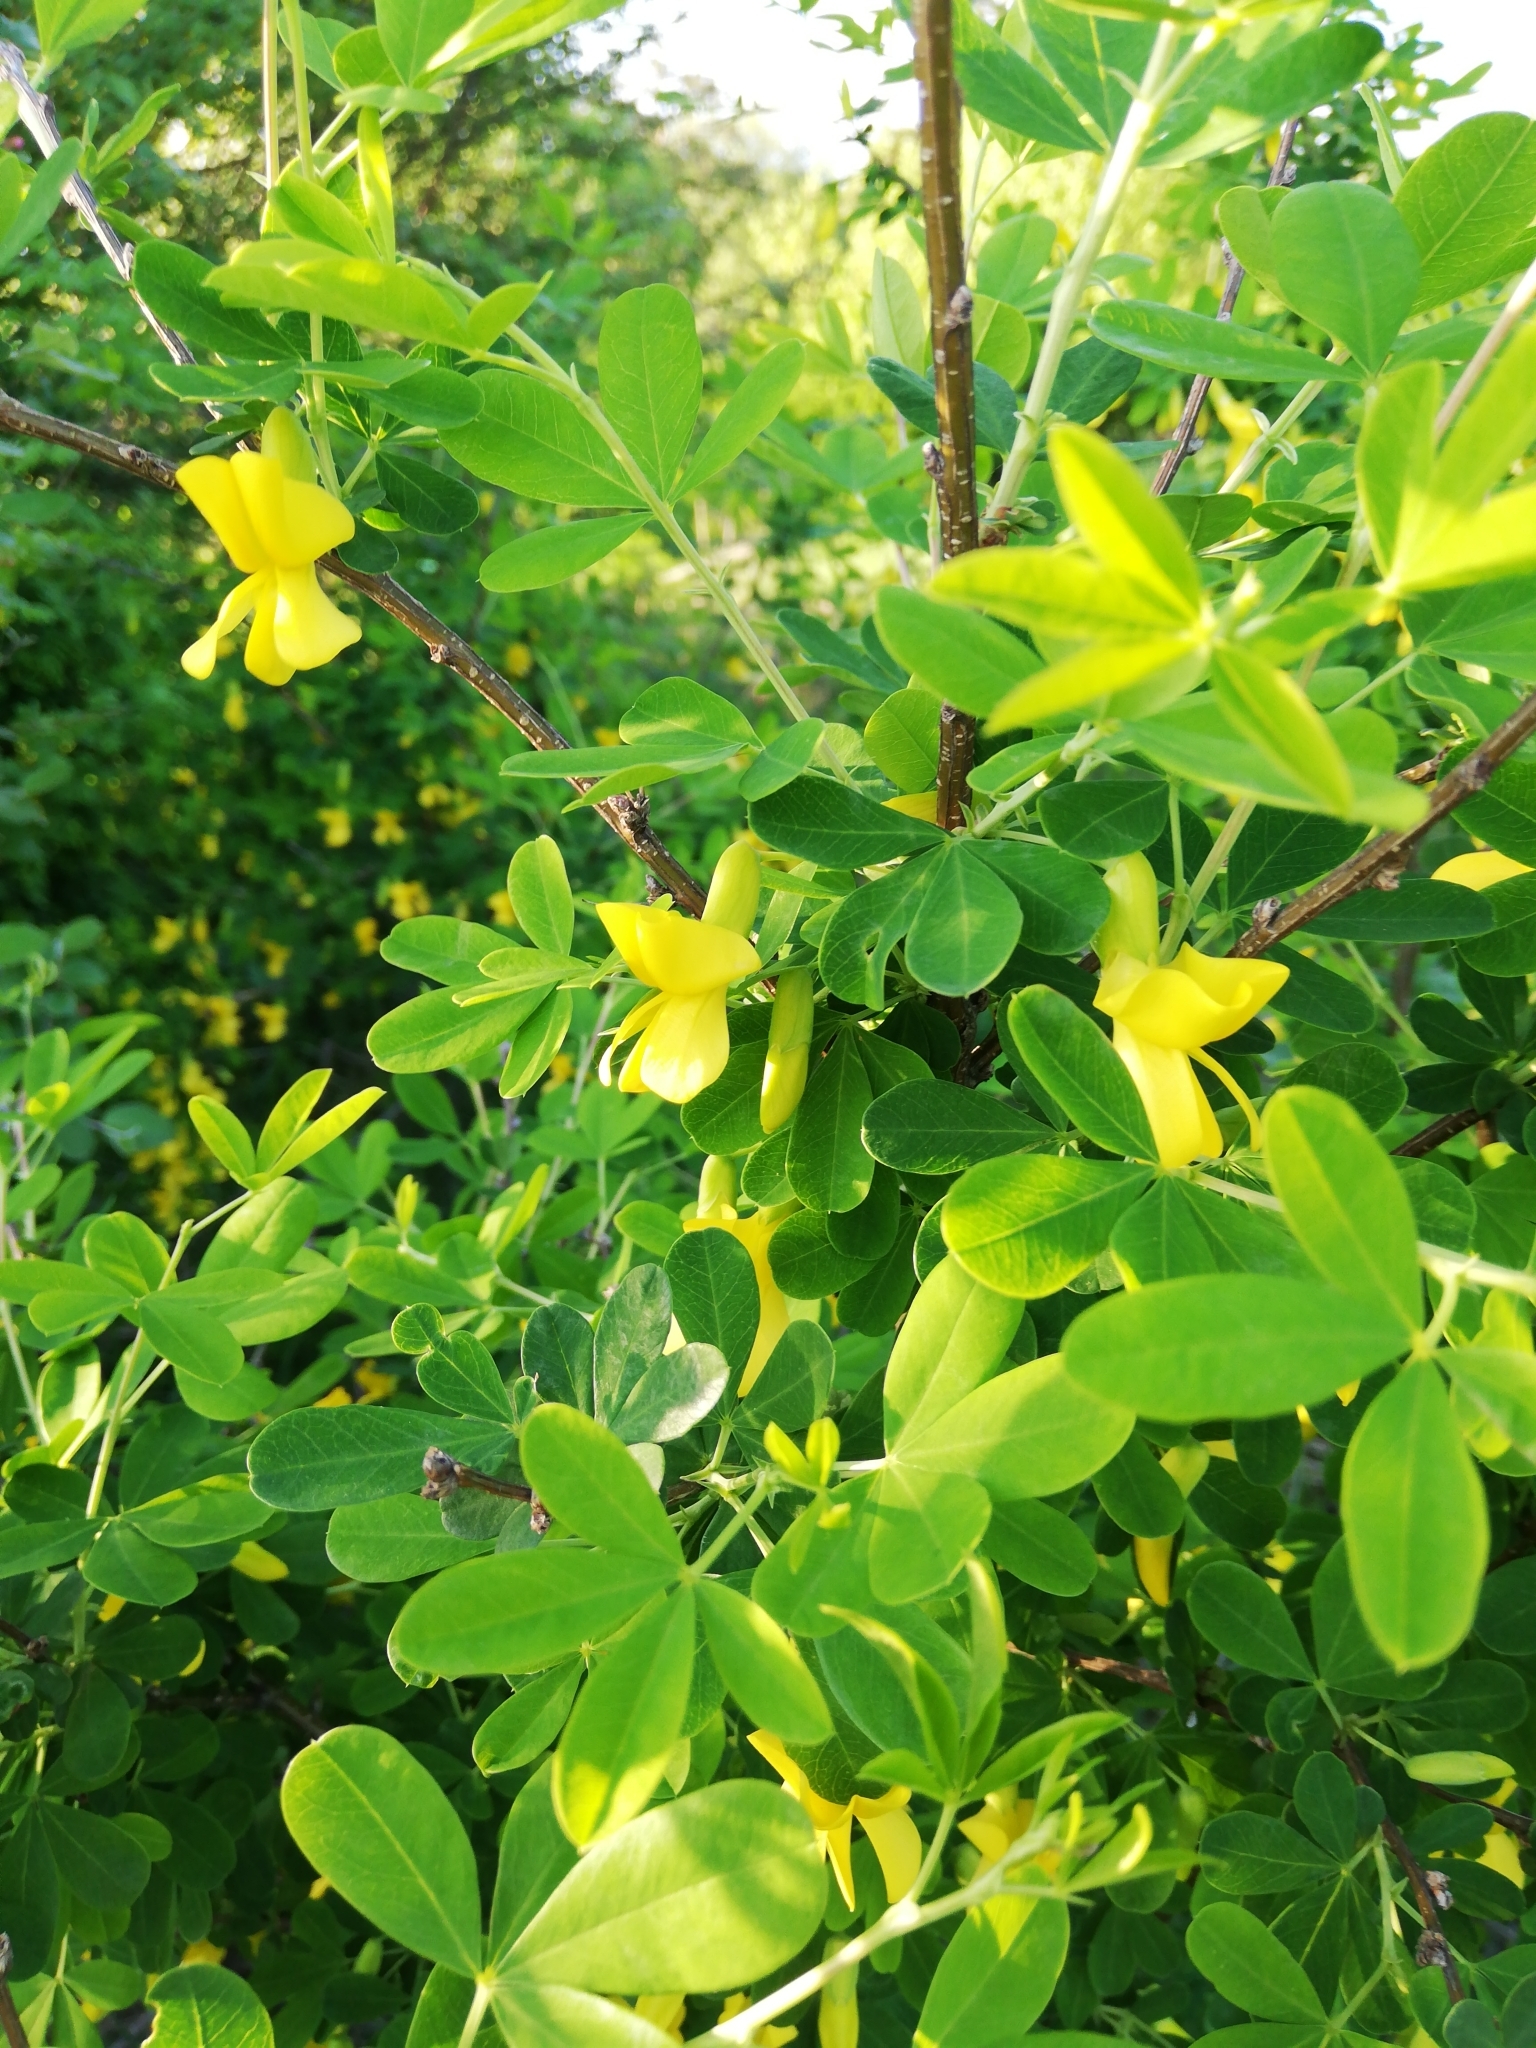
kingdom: Plantae
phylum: Tracheophyta
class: Magnoliopsida
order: Fabales
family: Fabaceae
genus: Caragana
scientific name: Caragana frutex
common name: Russian peashrub
